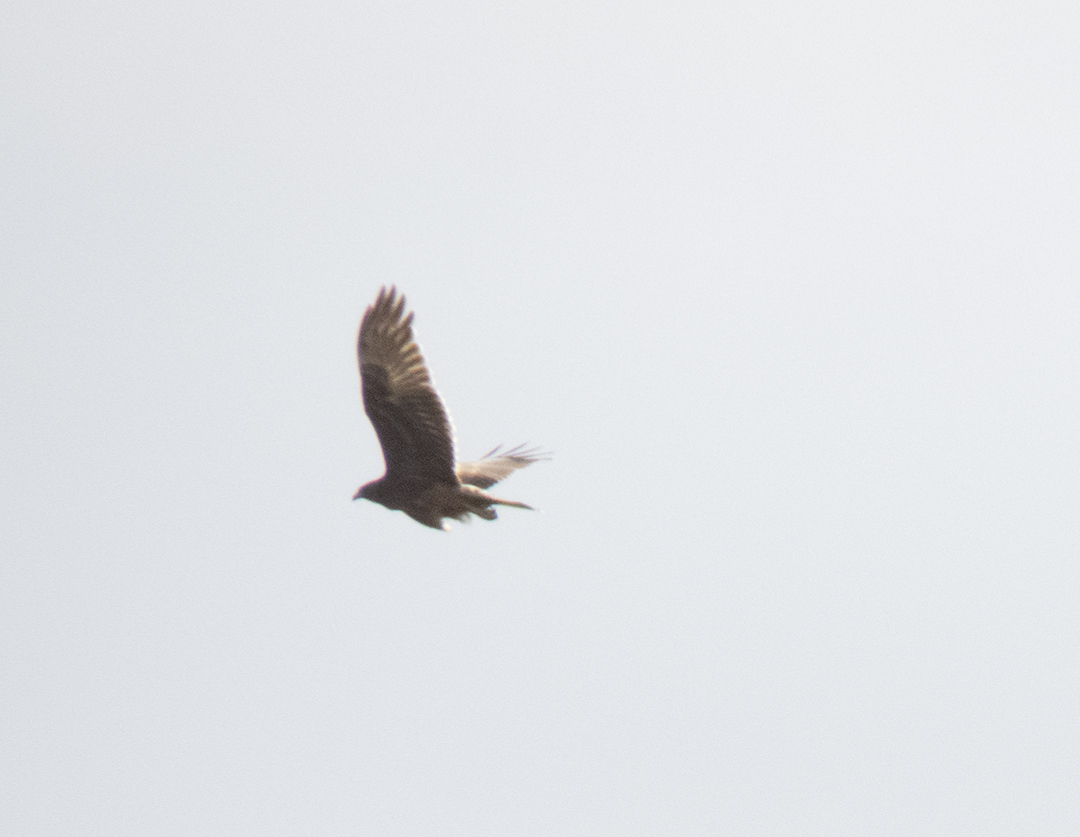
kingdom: Animalia
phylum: Chordata
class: Aves
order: Accipitriformes
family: Accipitridae
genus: Circus
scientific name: Circus approximans
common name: Swamp harrier
